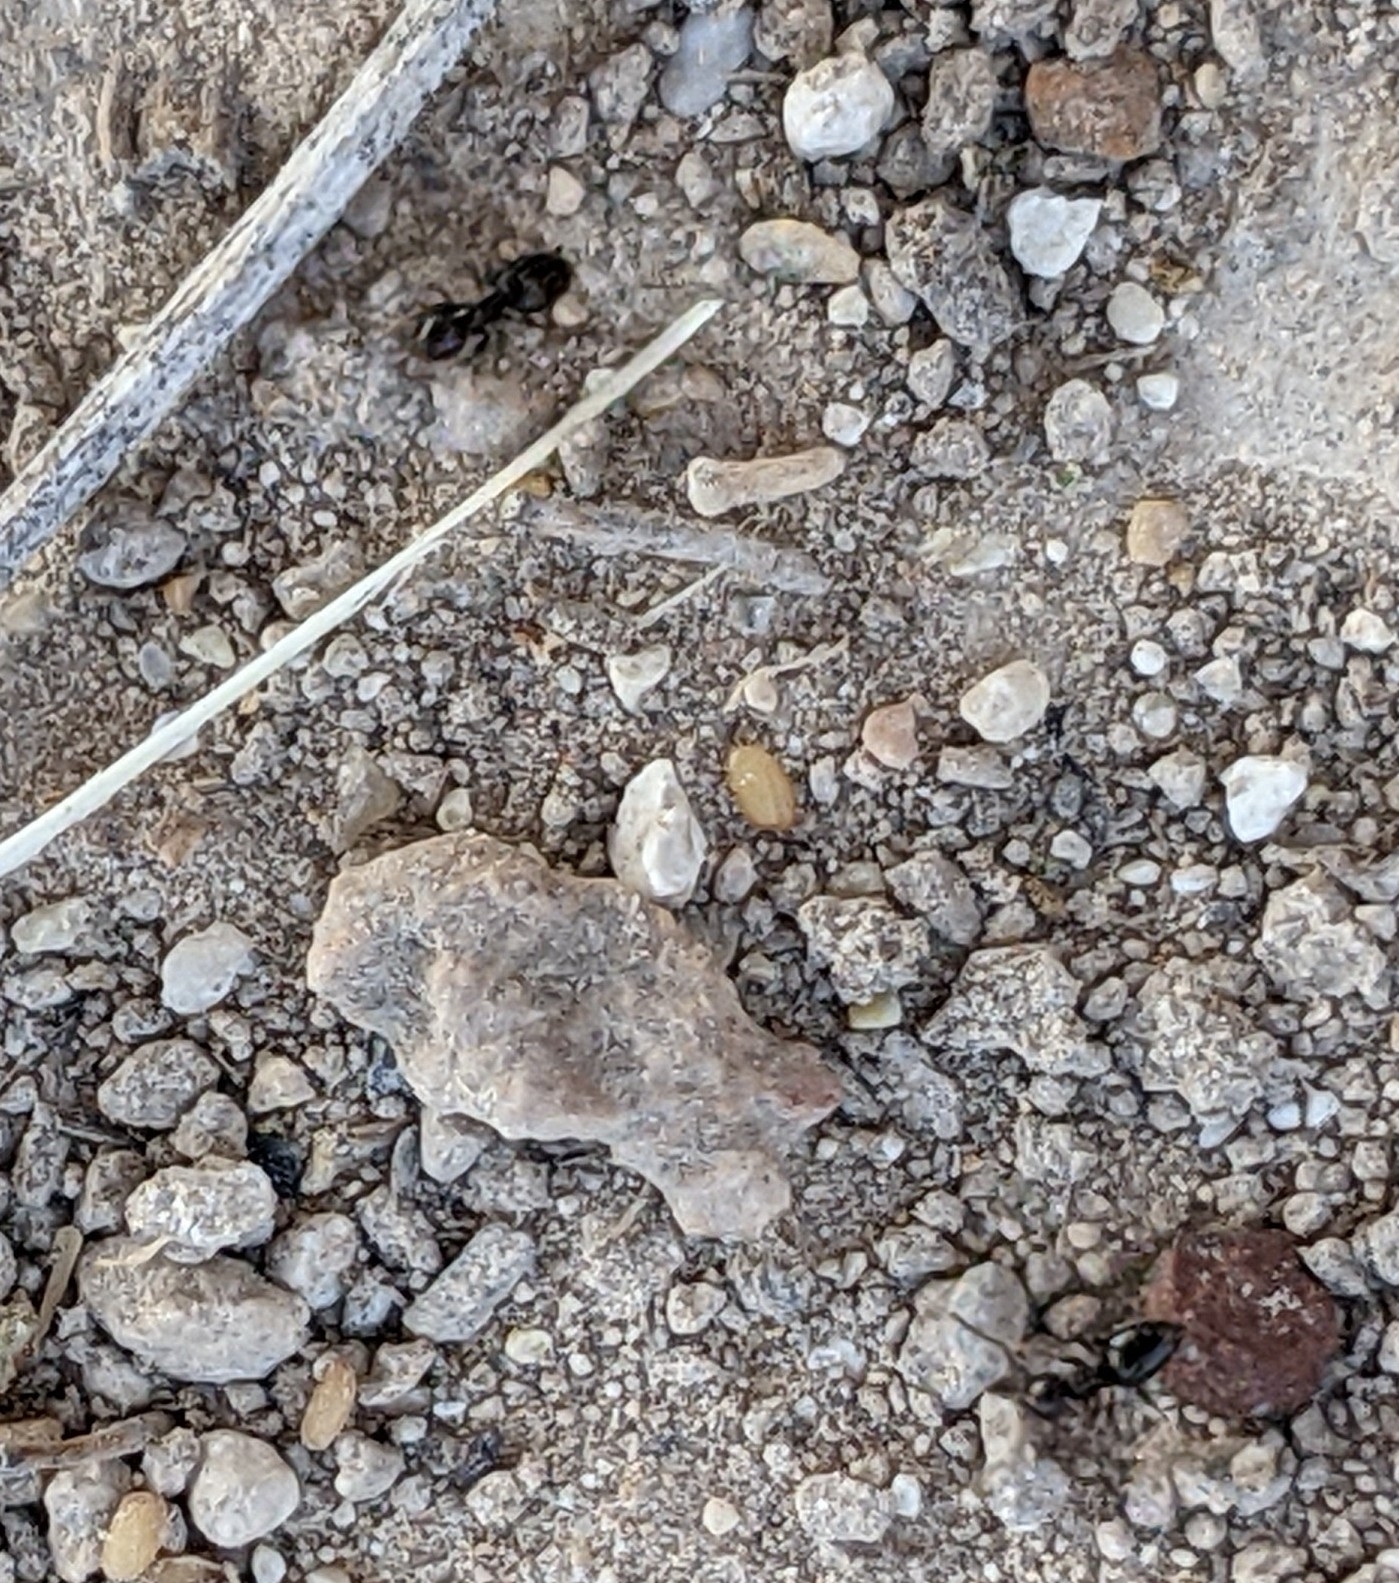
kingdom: Animalia
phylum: Arthropoda
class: Insecta
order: Hymenoptera
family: Formicidae
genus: Brachymyrmex
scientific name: Brachymyrmex patagonicus
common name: Dark rover ant
